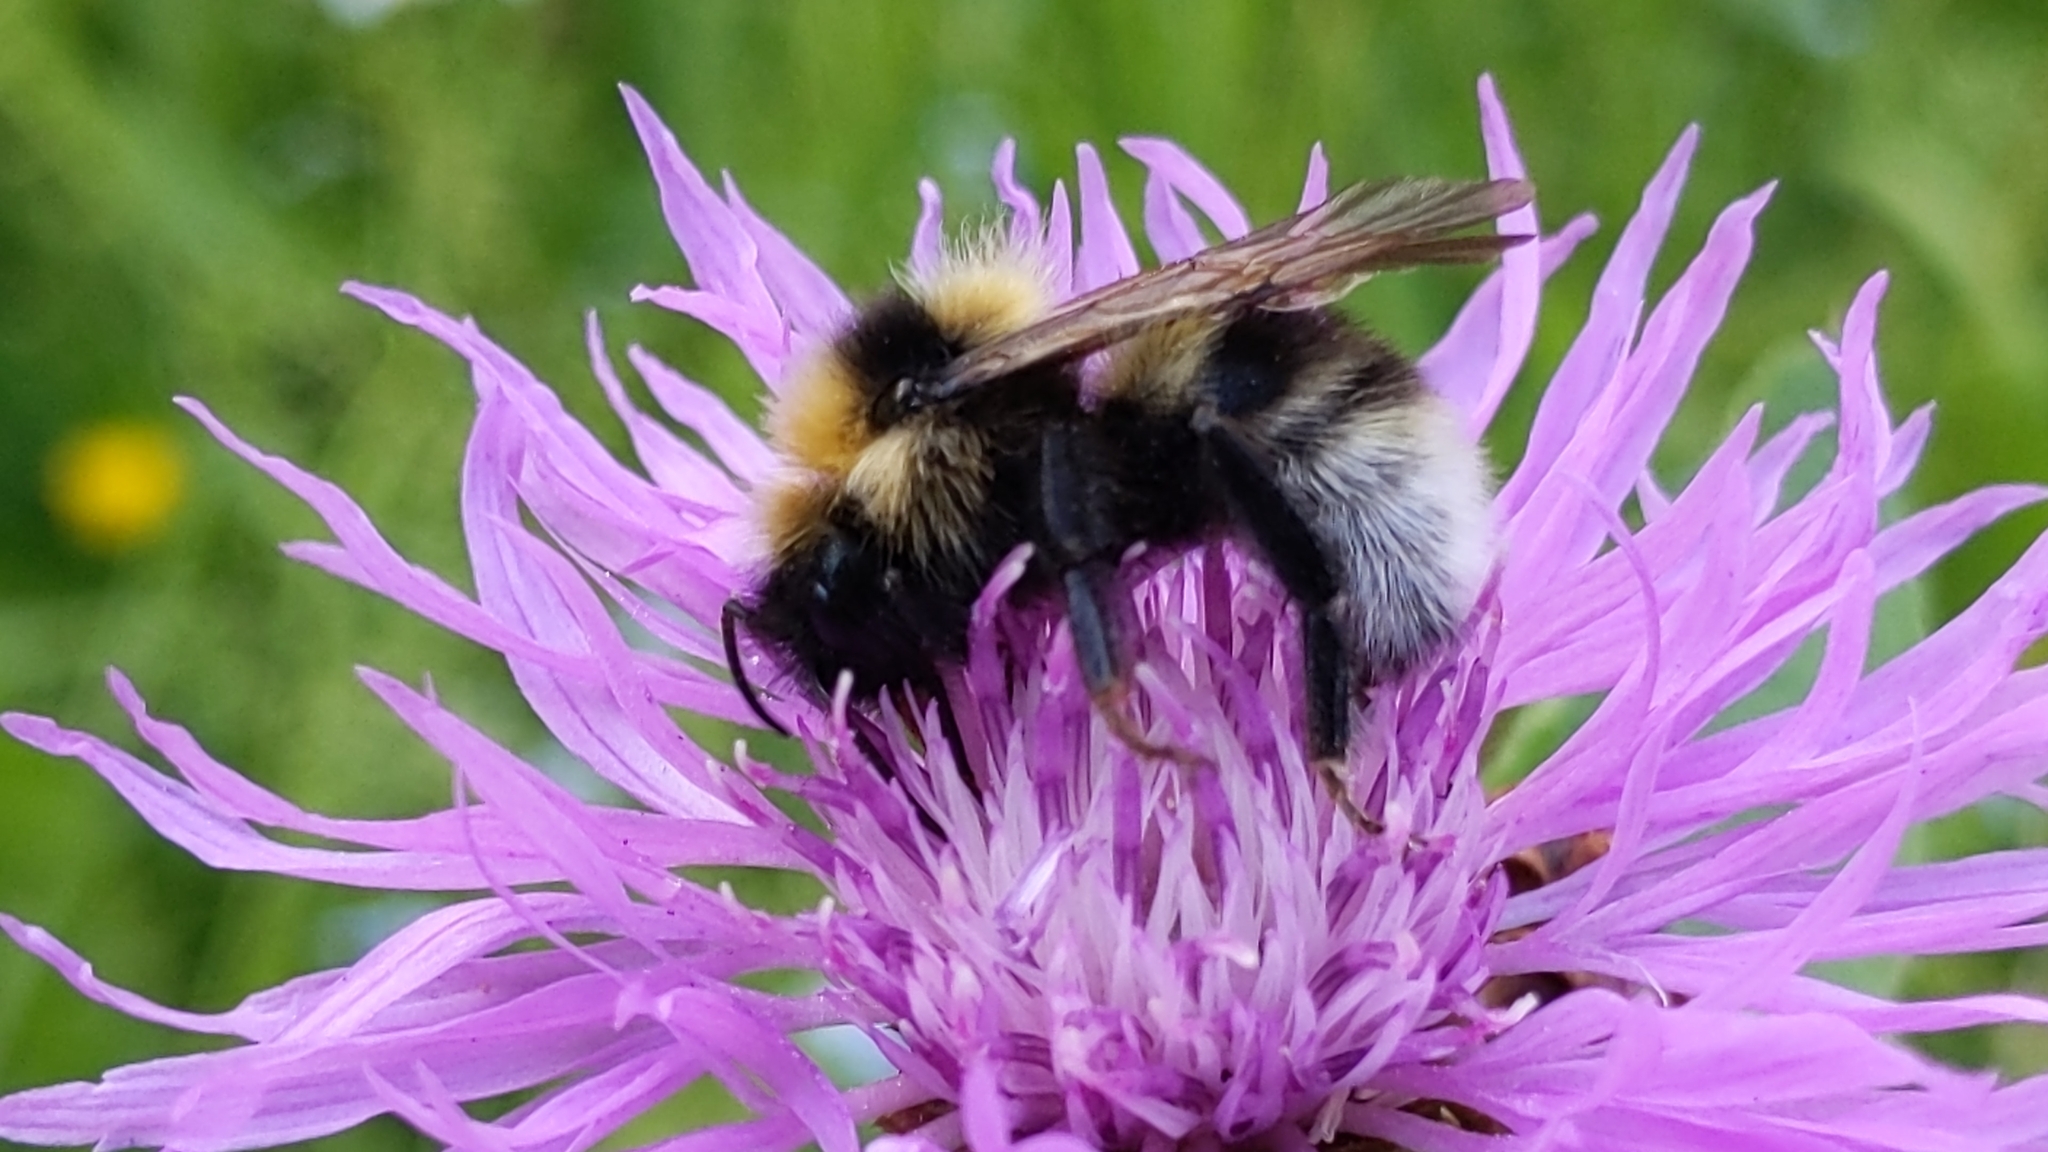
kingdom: Animalia
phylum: Arthropoda
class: Insecta
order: Hymenoptera
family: Apidae
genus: Bombus
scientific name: Bombus barbutellus
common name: Barbut's cuckoo-bee
